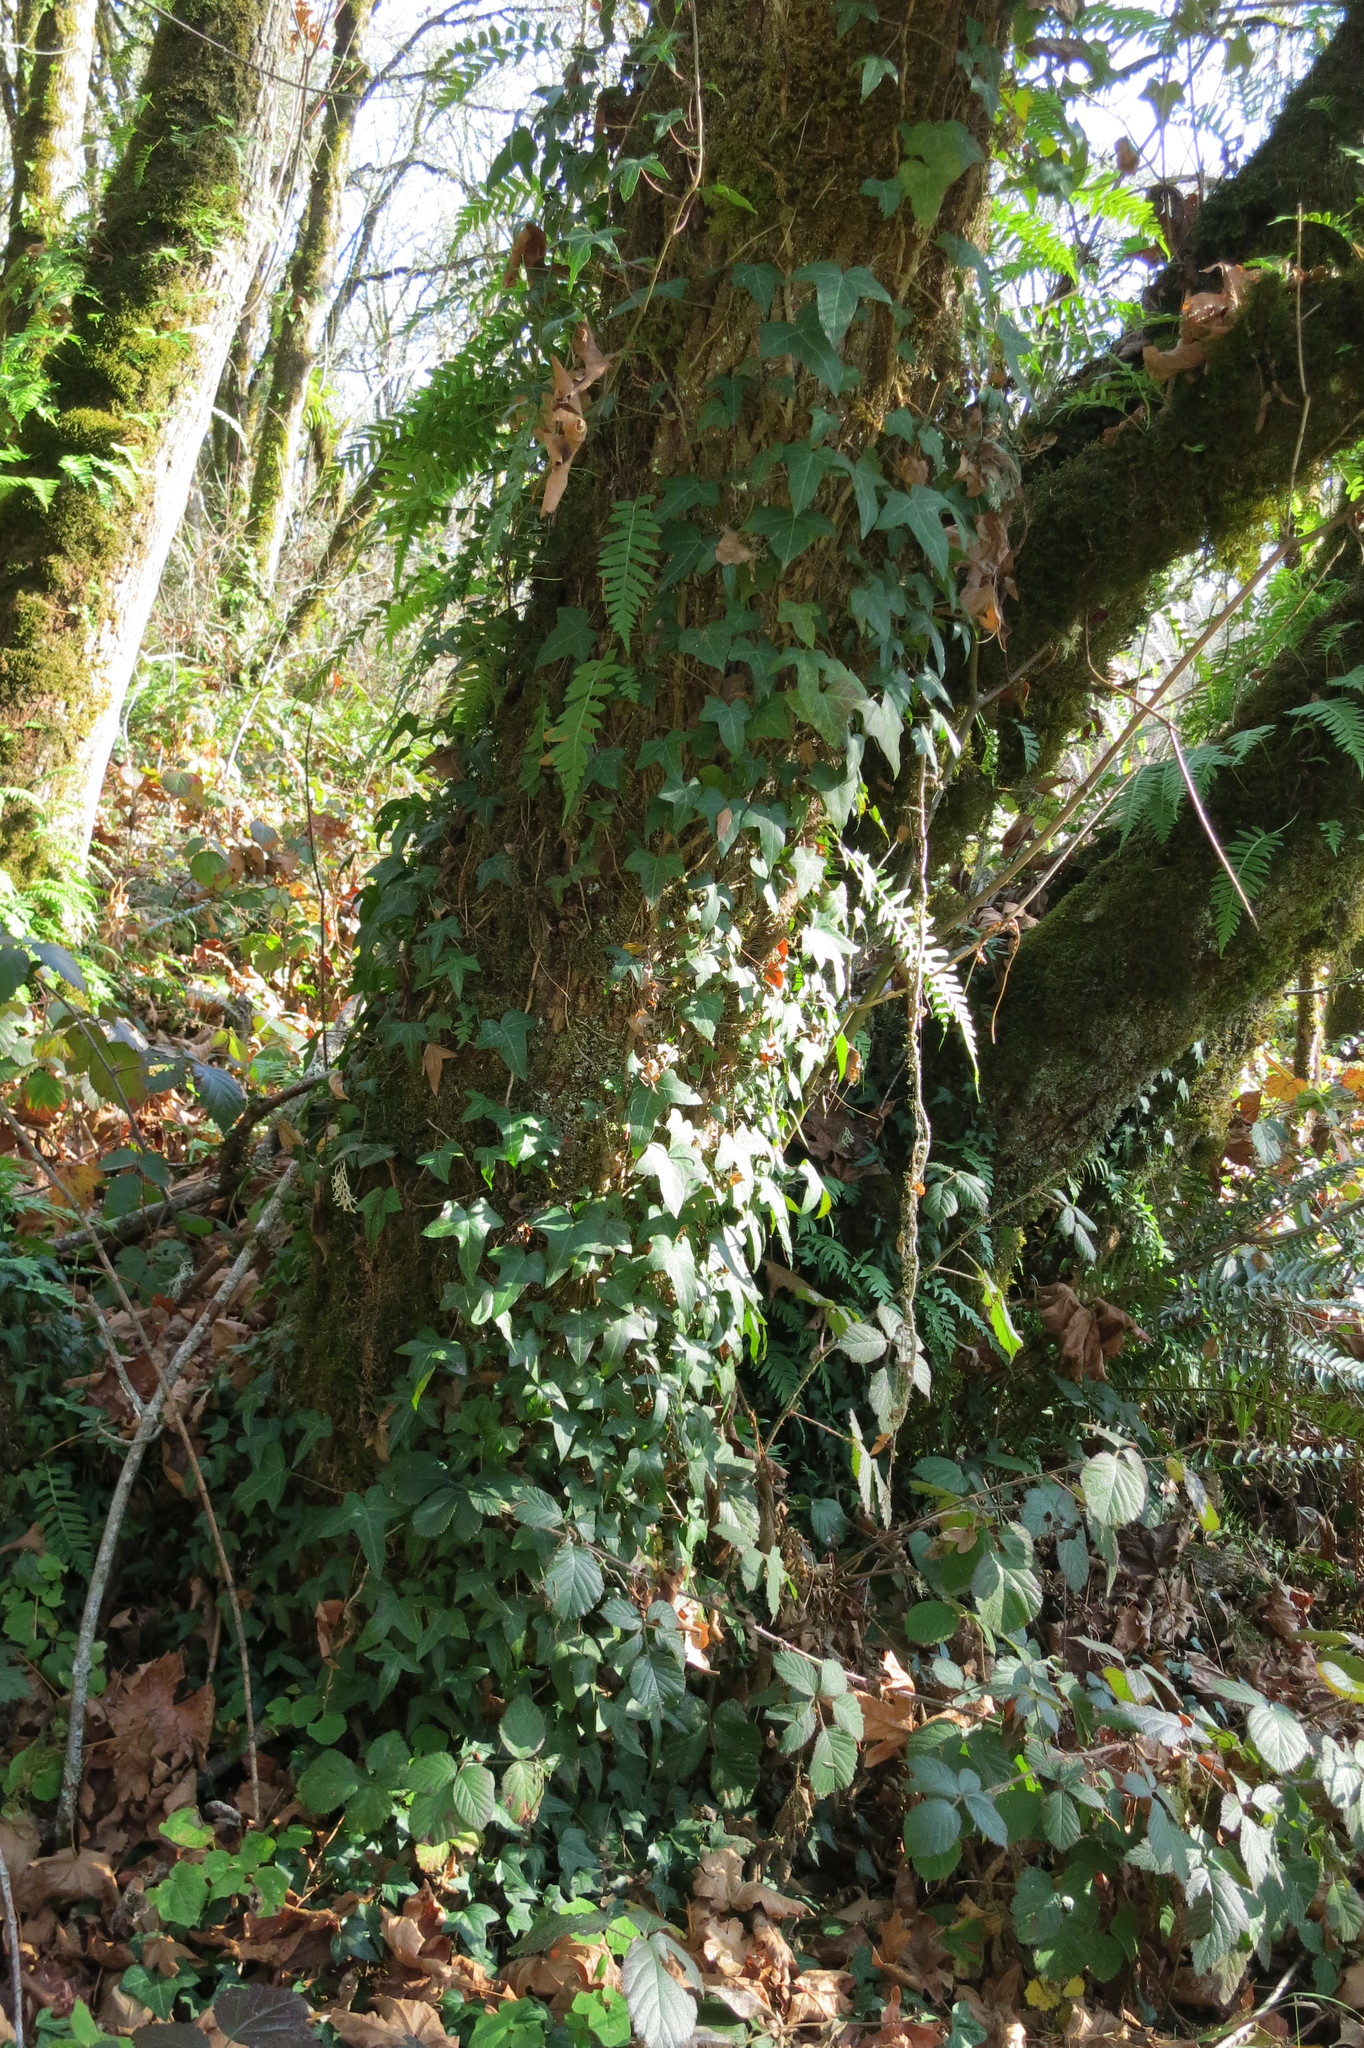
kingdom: Plantae
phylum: Tracheophyta
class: Magnoliopsida
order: Apiales
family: Araliaceae
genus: Hedera
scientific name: Hedera helix
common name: Ivy
